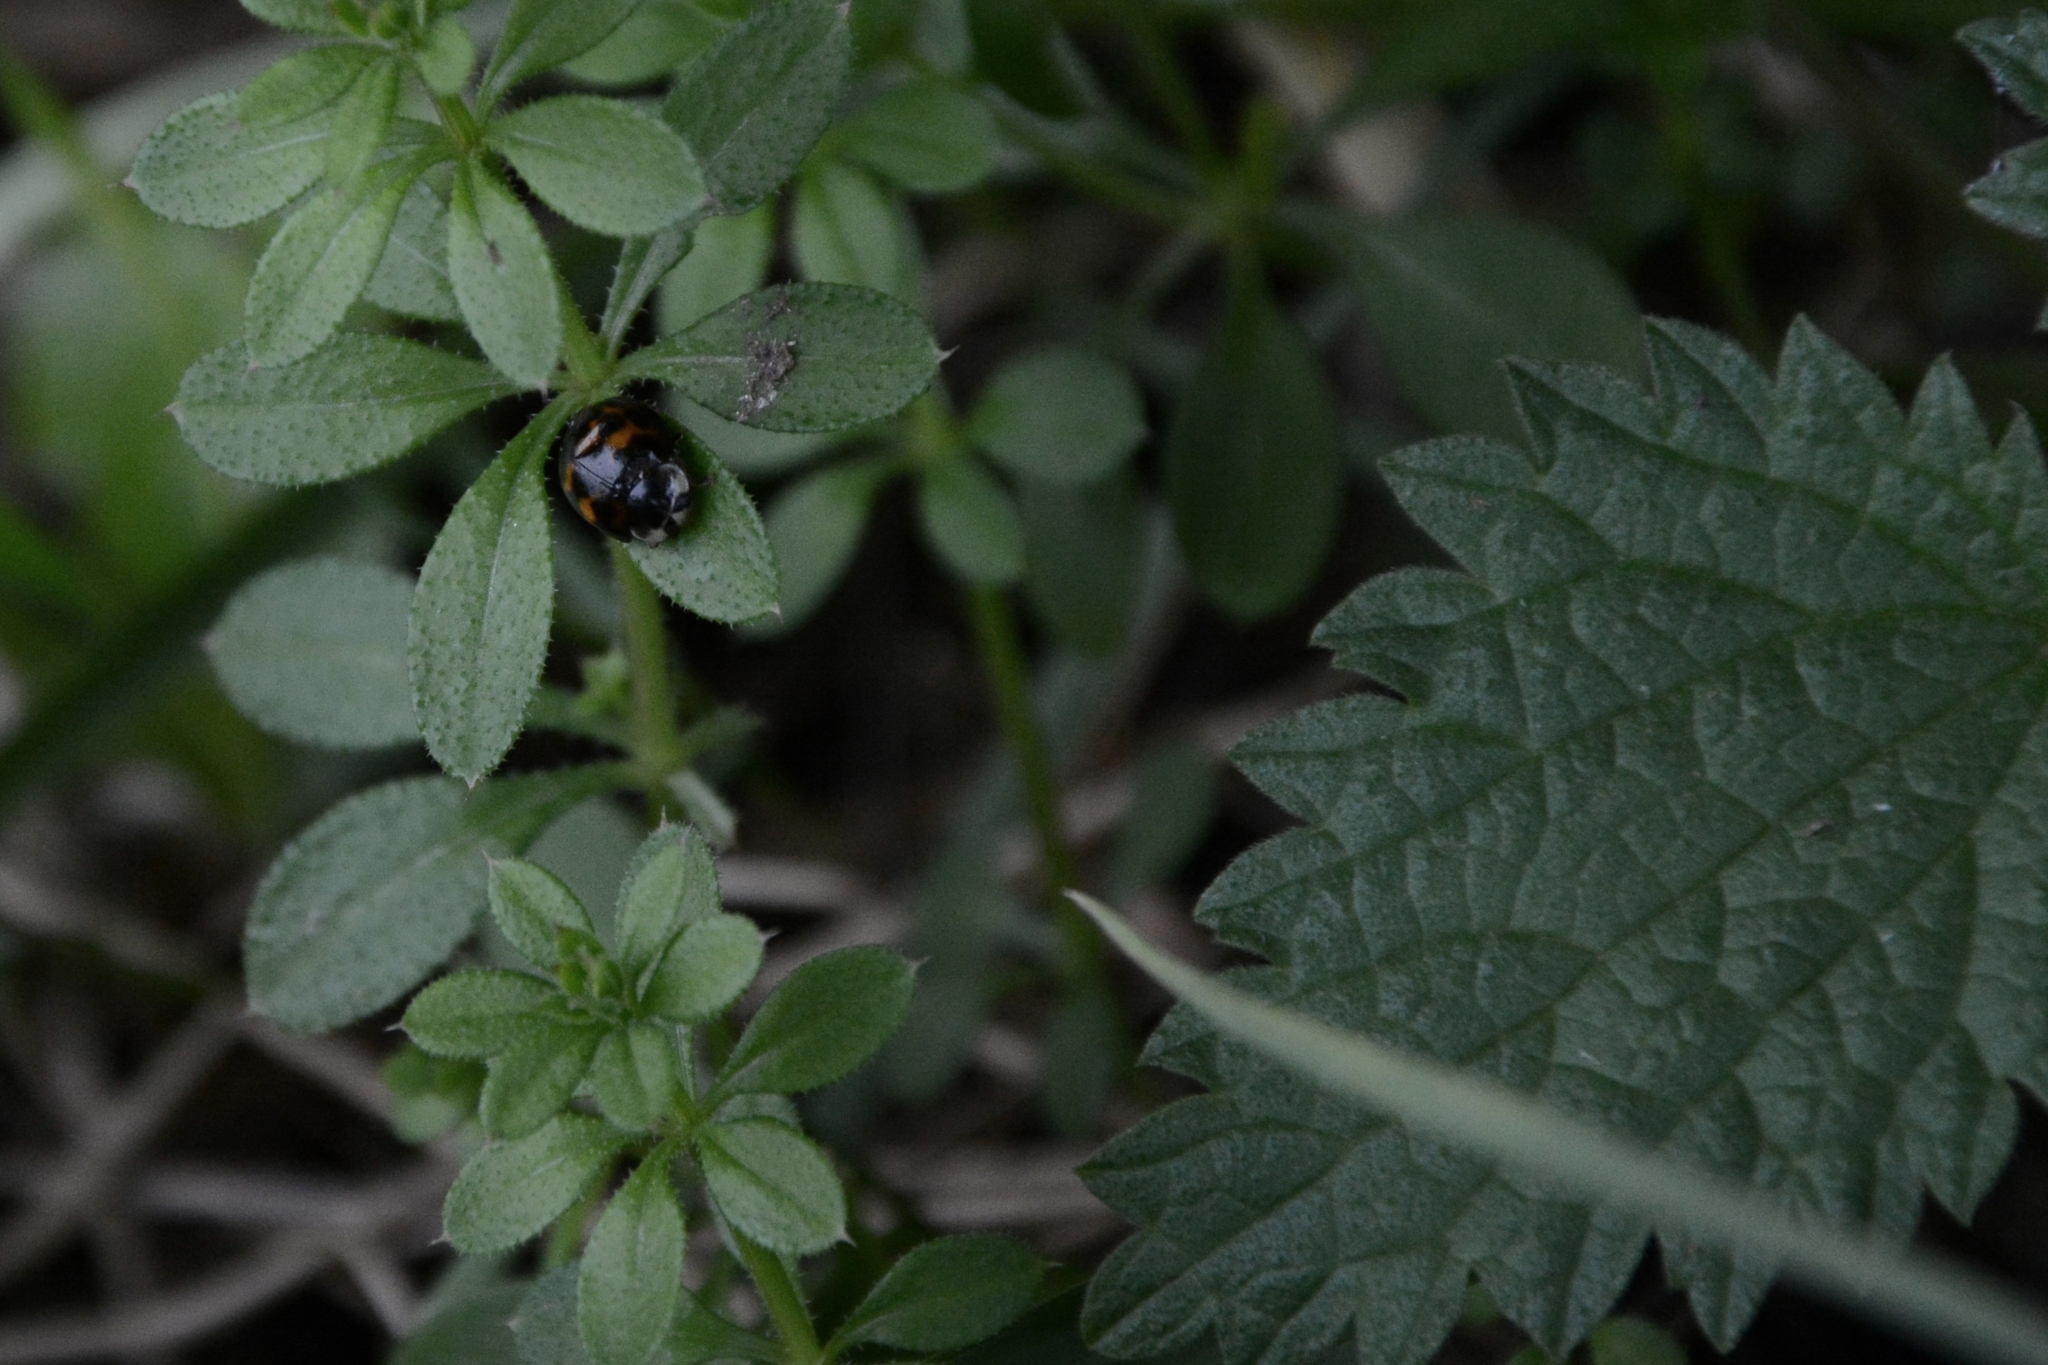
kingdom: Animalia
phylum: Arthropoda
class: Insecta
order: Coleoptera
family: Coccinellidae
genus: Harmonia
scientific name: Harmonia axyridis
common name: Harlequin ladybird
